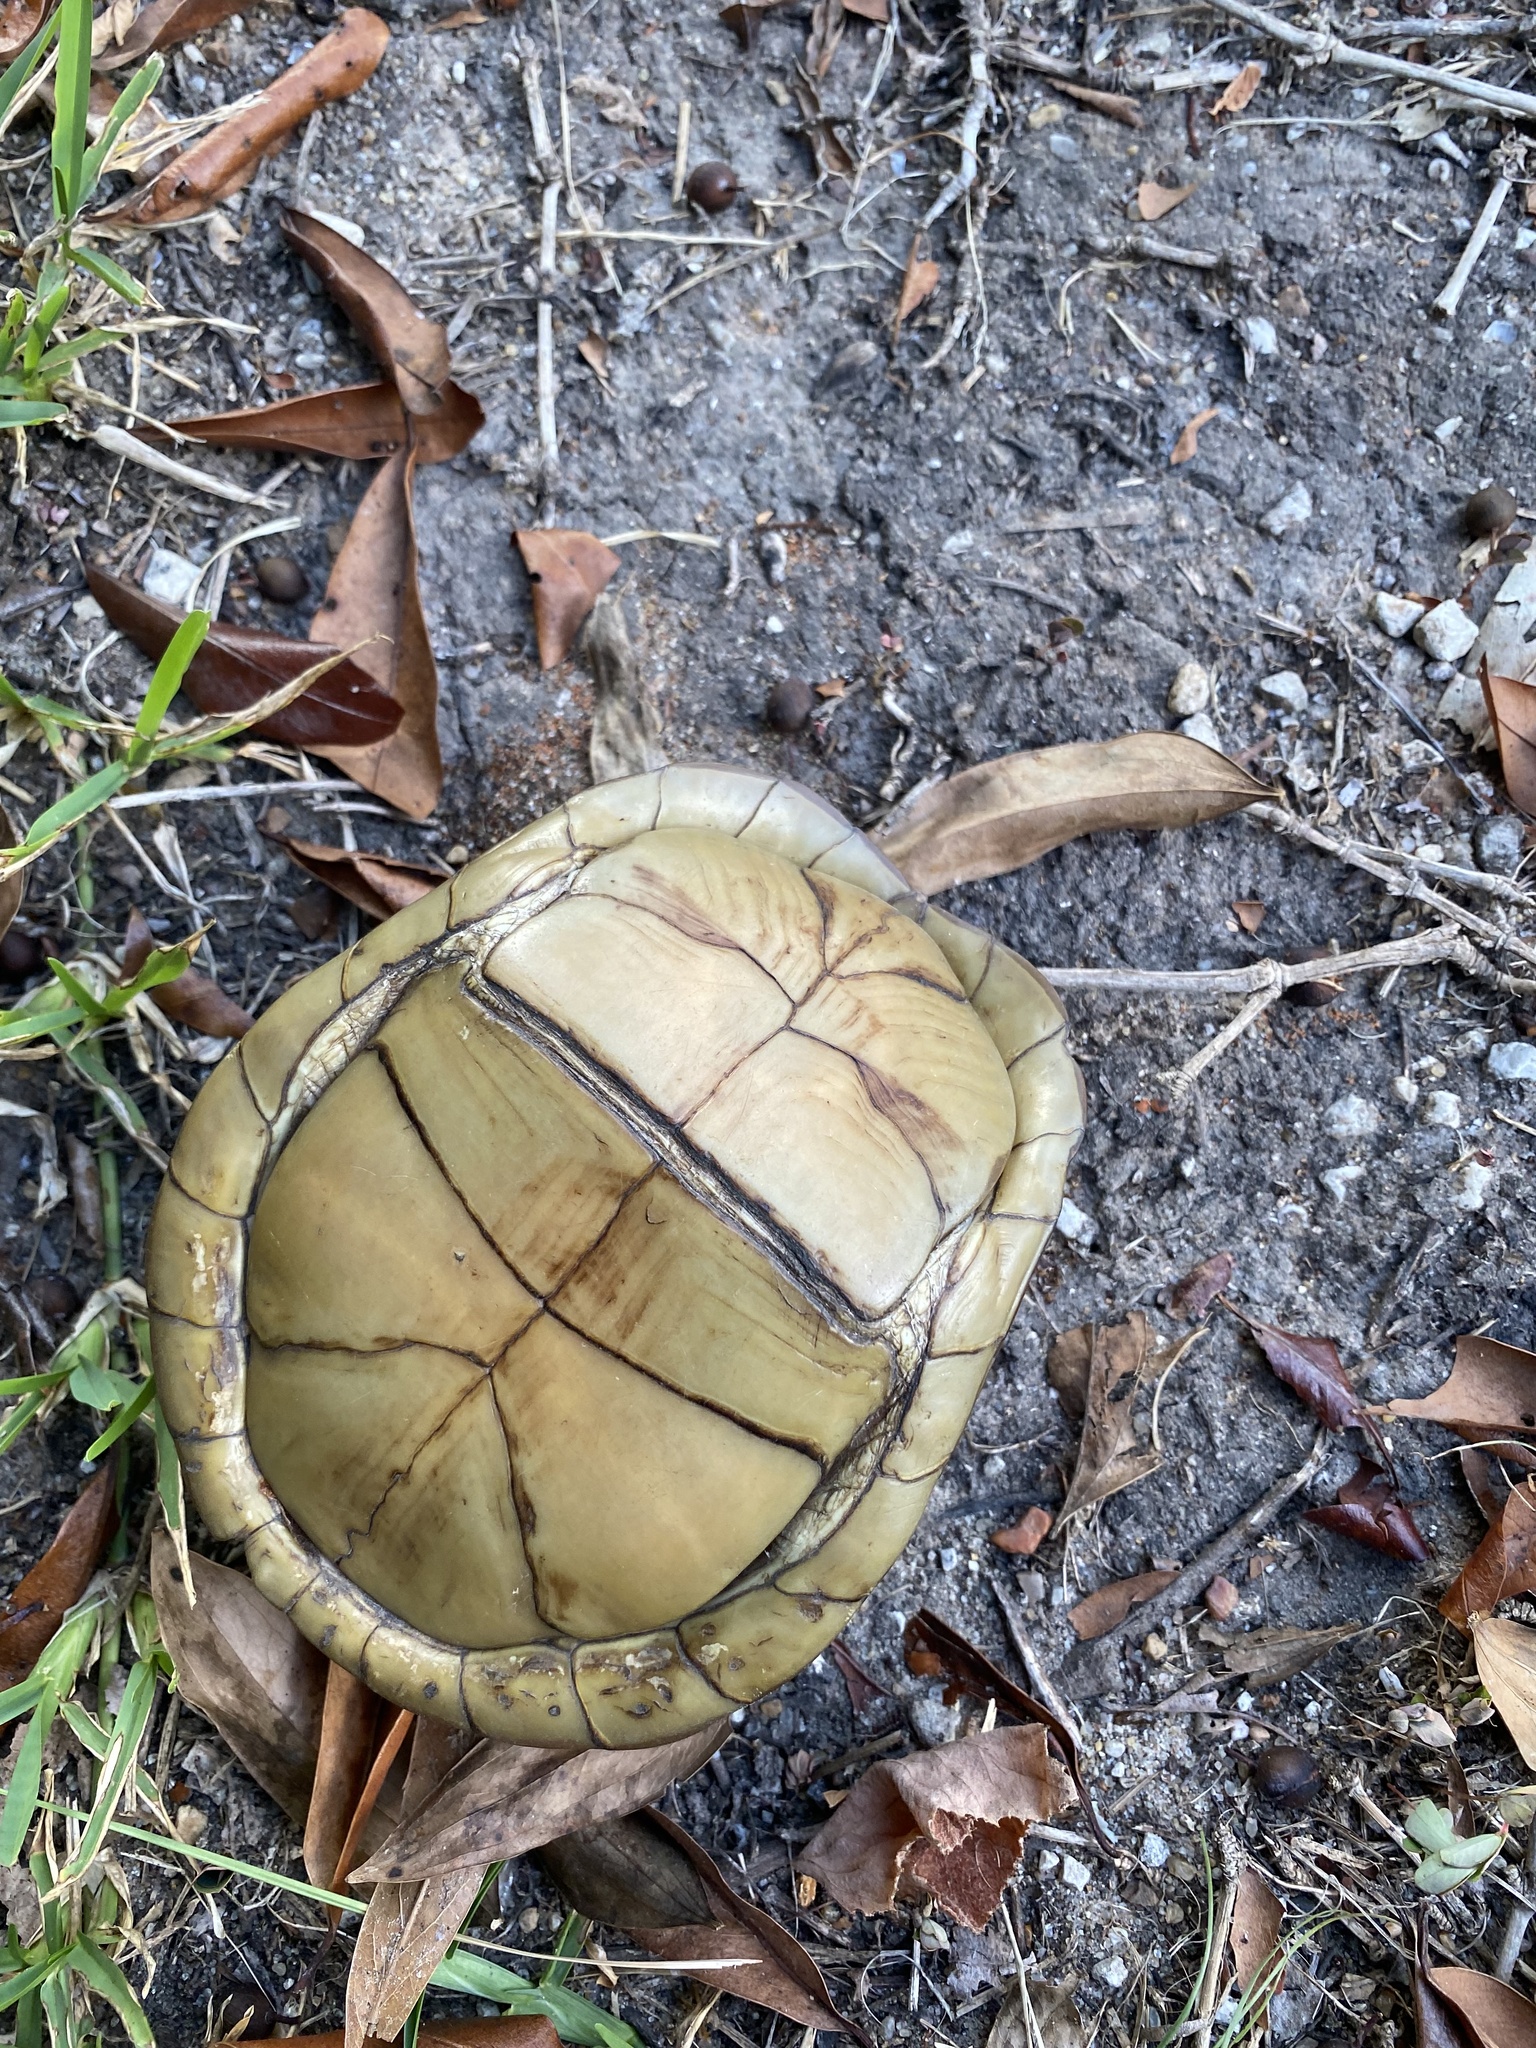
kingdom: Animalia
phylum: Chordata
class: Testudines
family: Emydidae
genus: Terrapene
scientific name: Terrapene carolina
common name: Common box turtle
